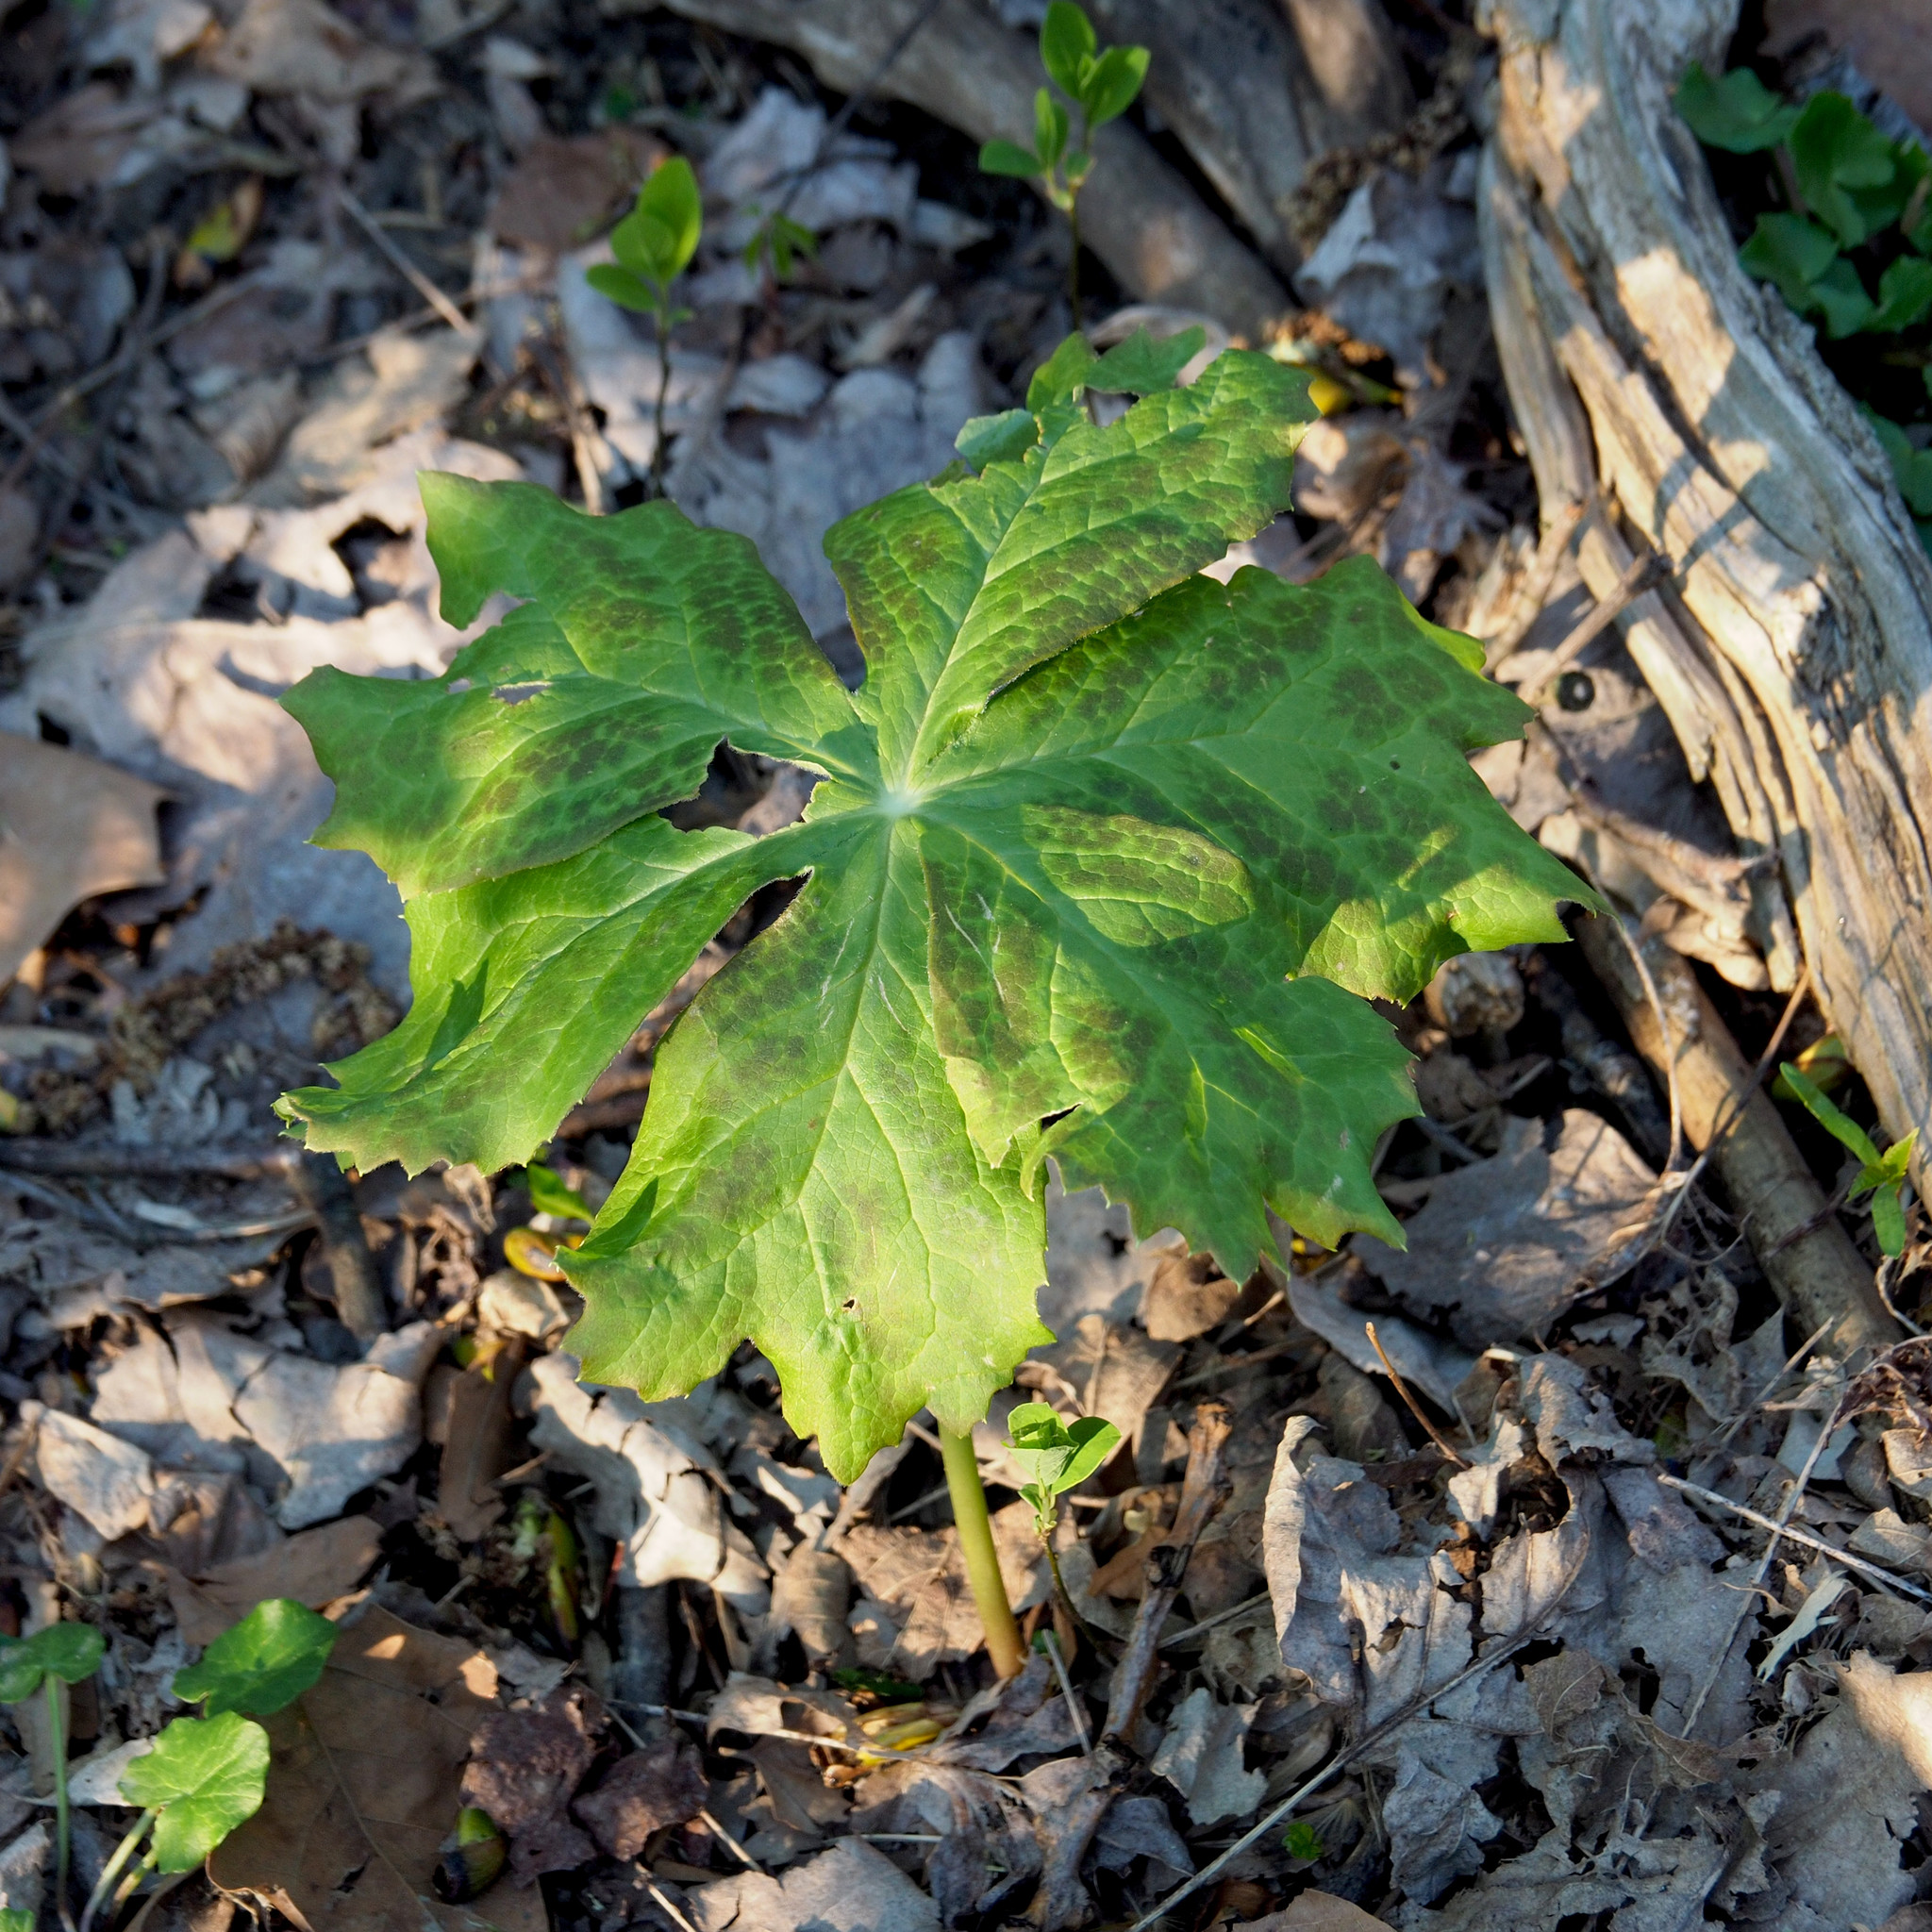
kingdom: Plantae
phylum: Tracheophyta
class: Magnoliopsida
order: Ranunculales
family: Berberidaceae
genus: Podophyllum
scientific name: Podophyllum peltatum
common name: Wild mandrake
